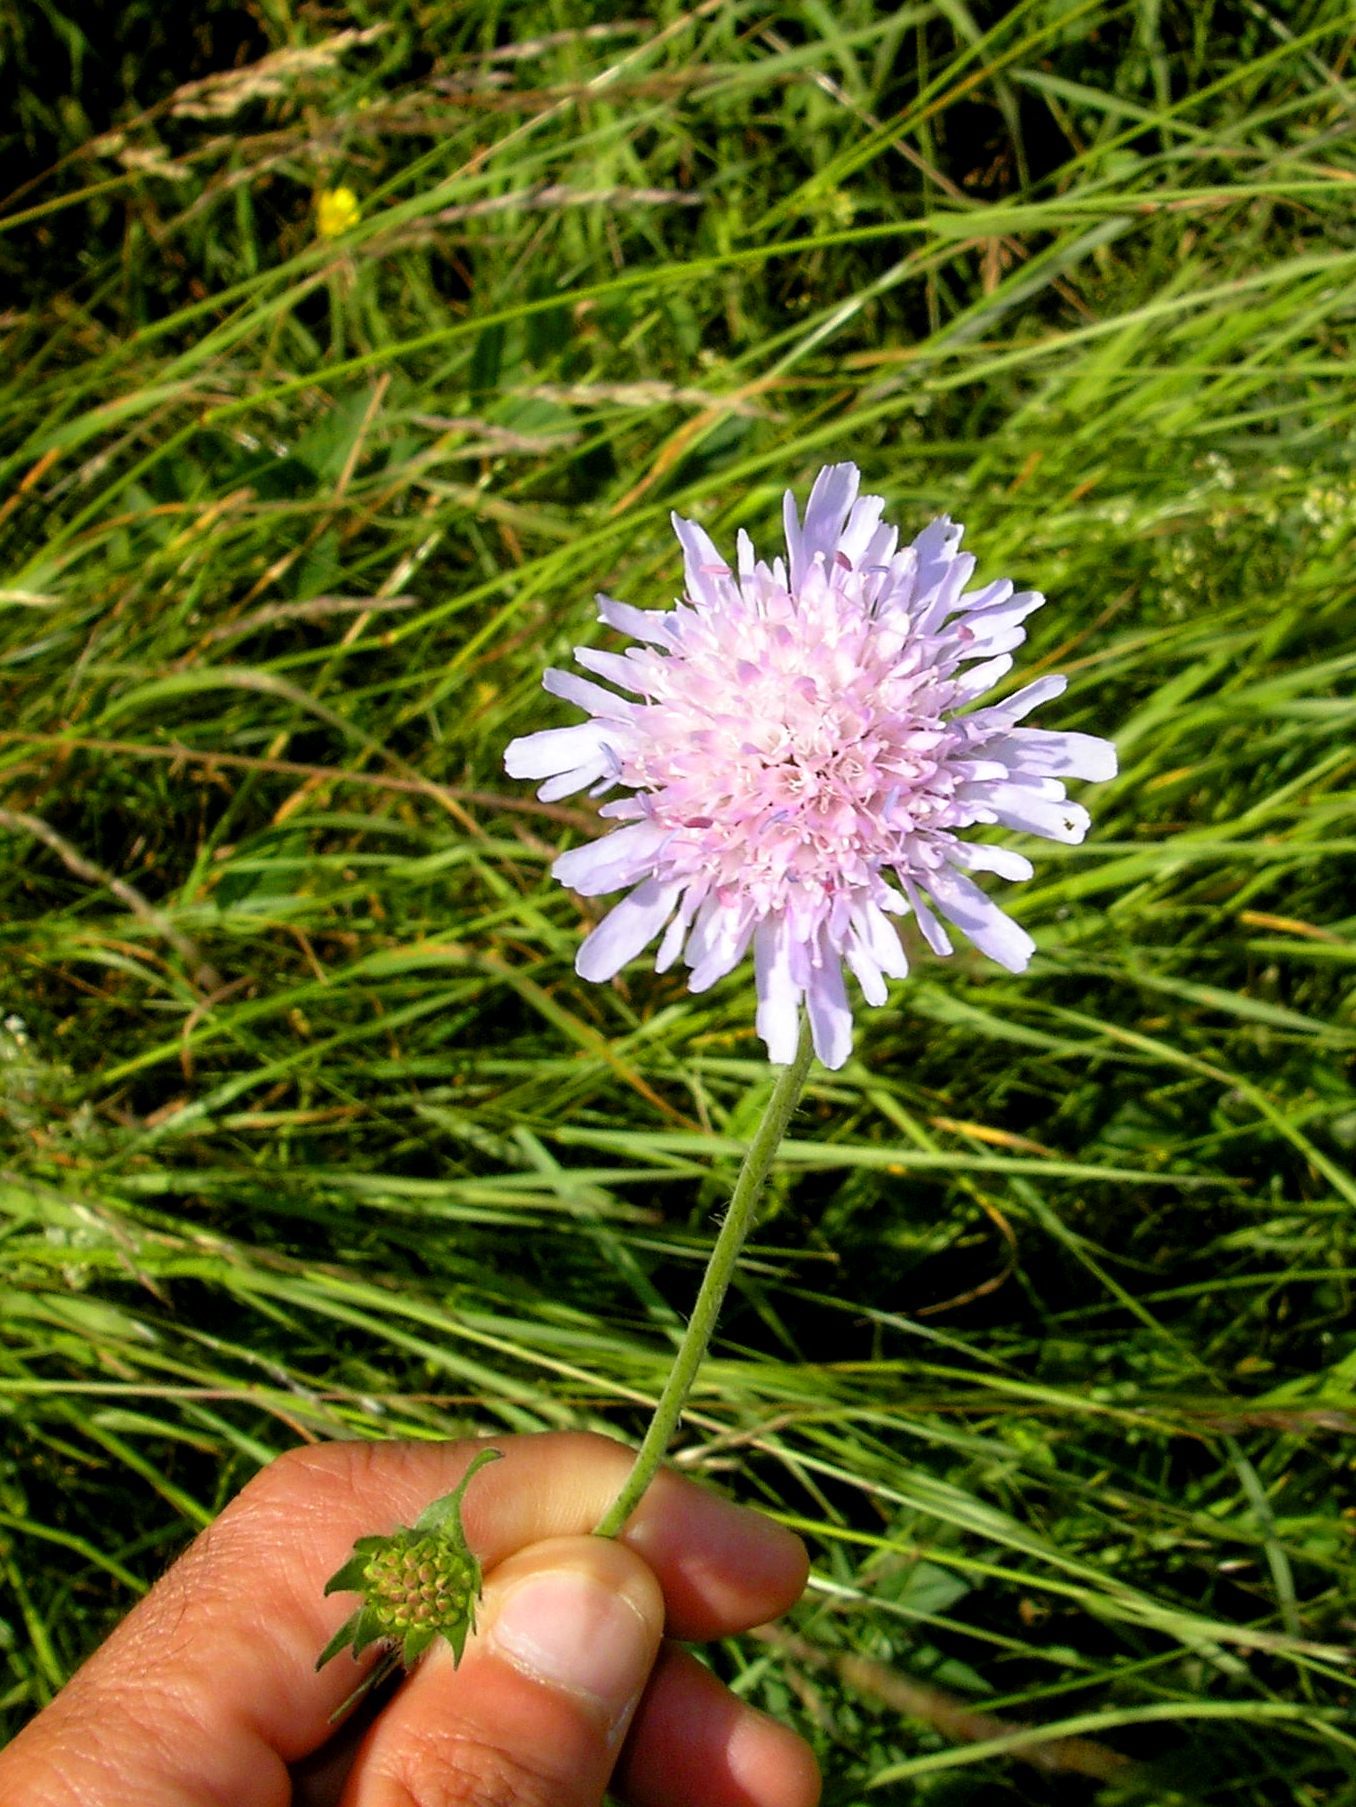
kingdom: Plantae
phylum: Tracheophyta
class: Magnoliopsida
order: Dipsacales
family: Caprifoliaceae
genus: Knautia
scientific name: Knautia arvensis
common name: Field scabiosa
